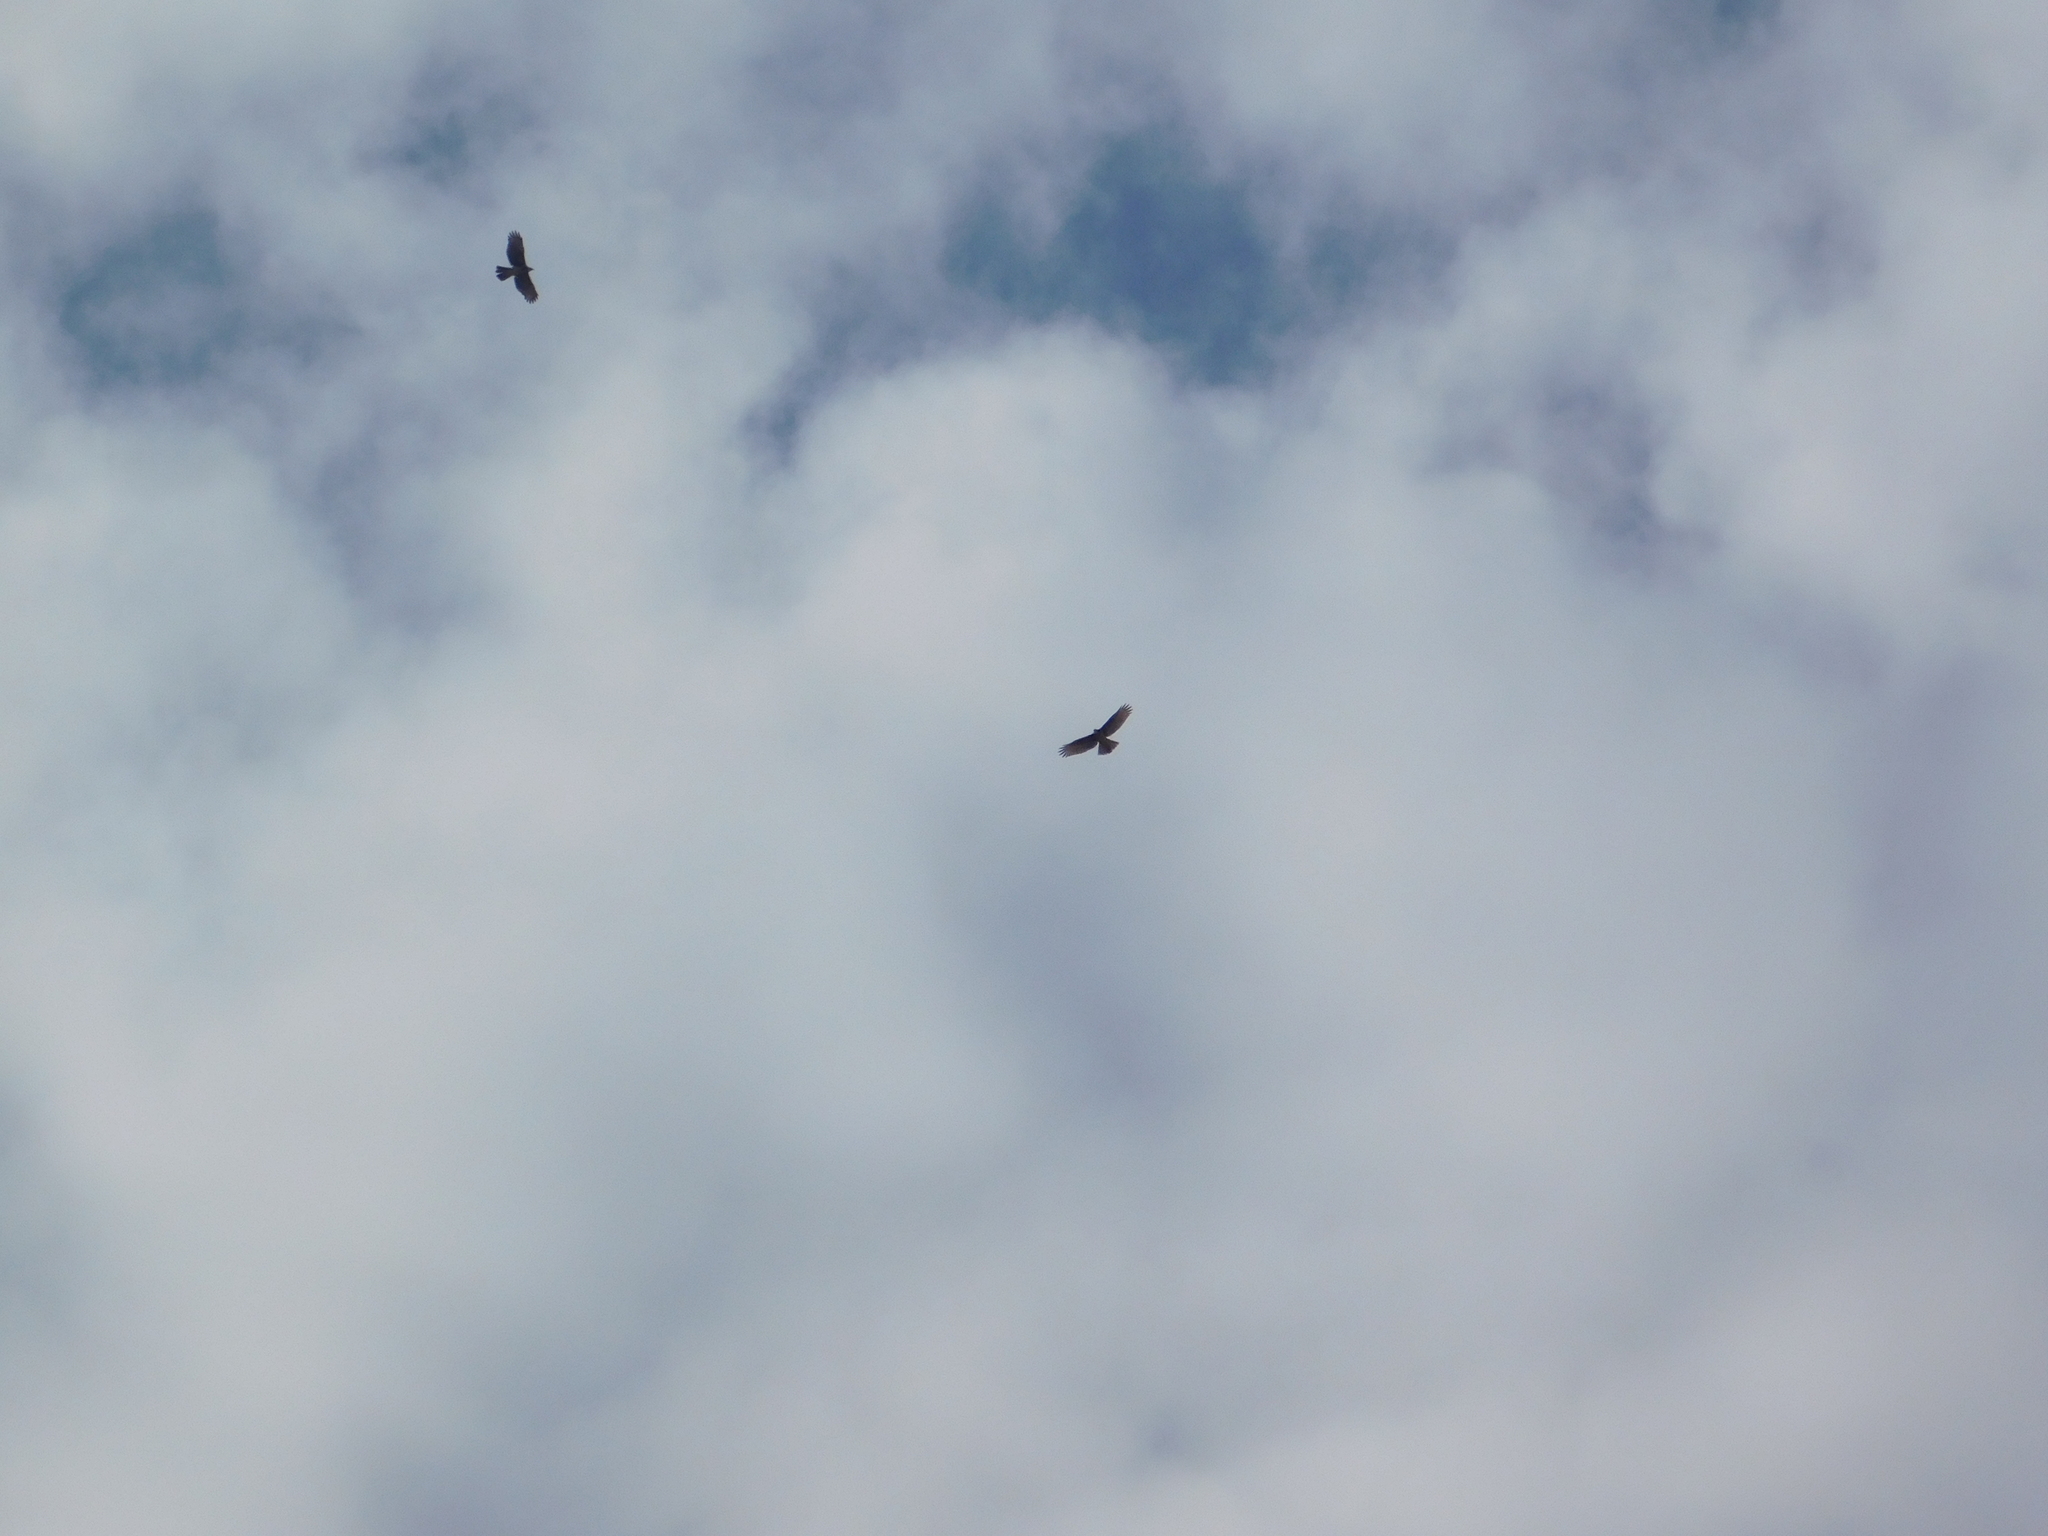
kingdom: Animalia
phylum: Chordata
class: Aves
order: Accipitriformes
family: Accipitridae
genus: Parabuteo
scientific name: Parabuteo unicinctus
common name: Harris's hawk
